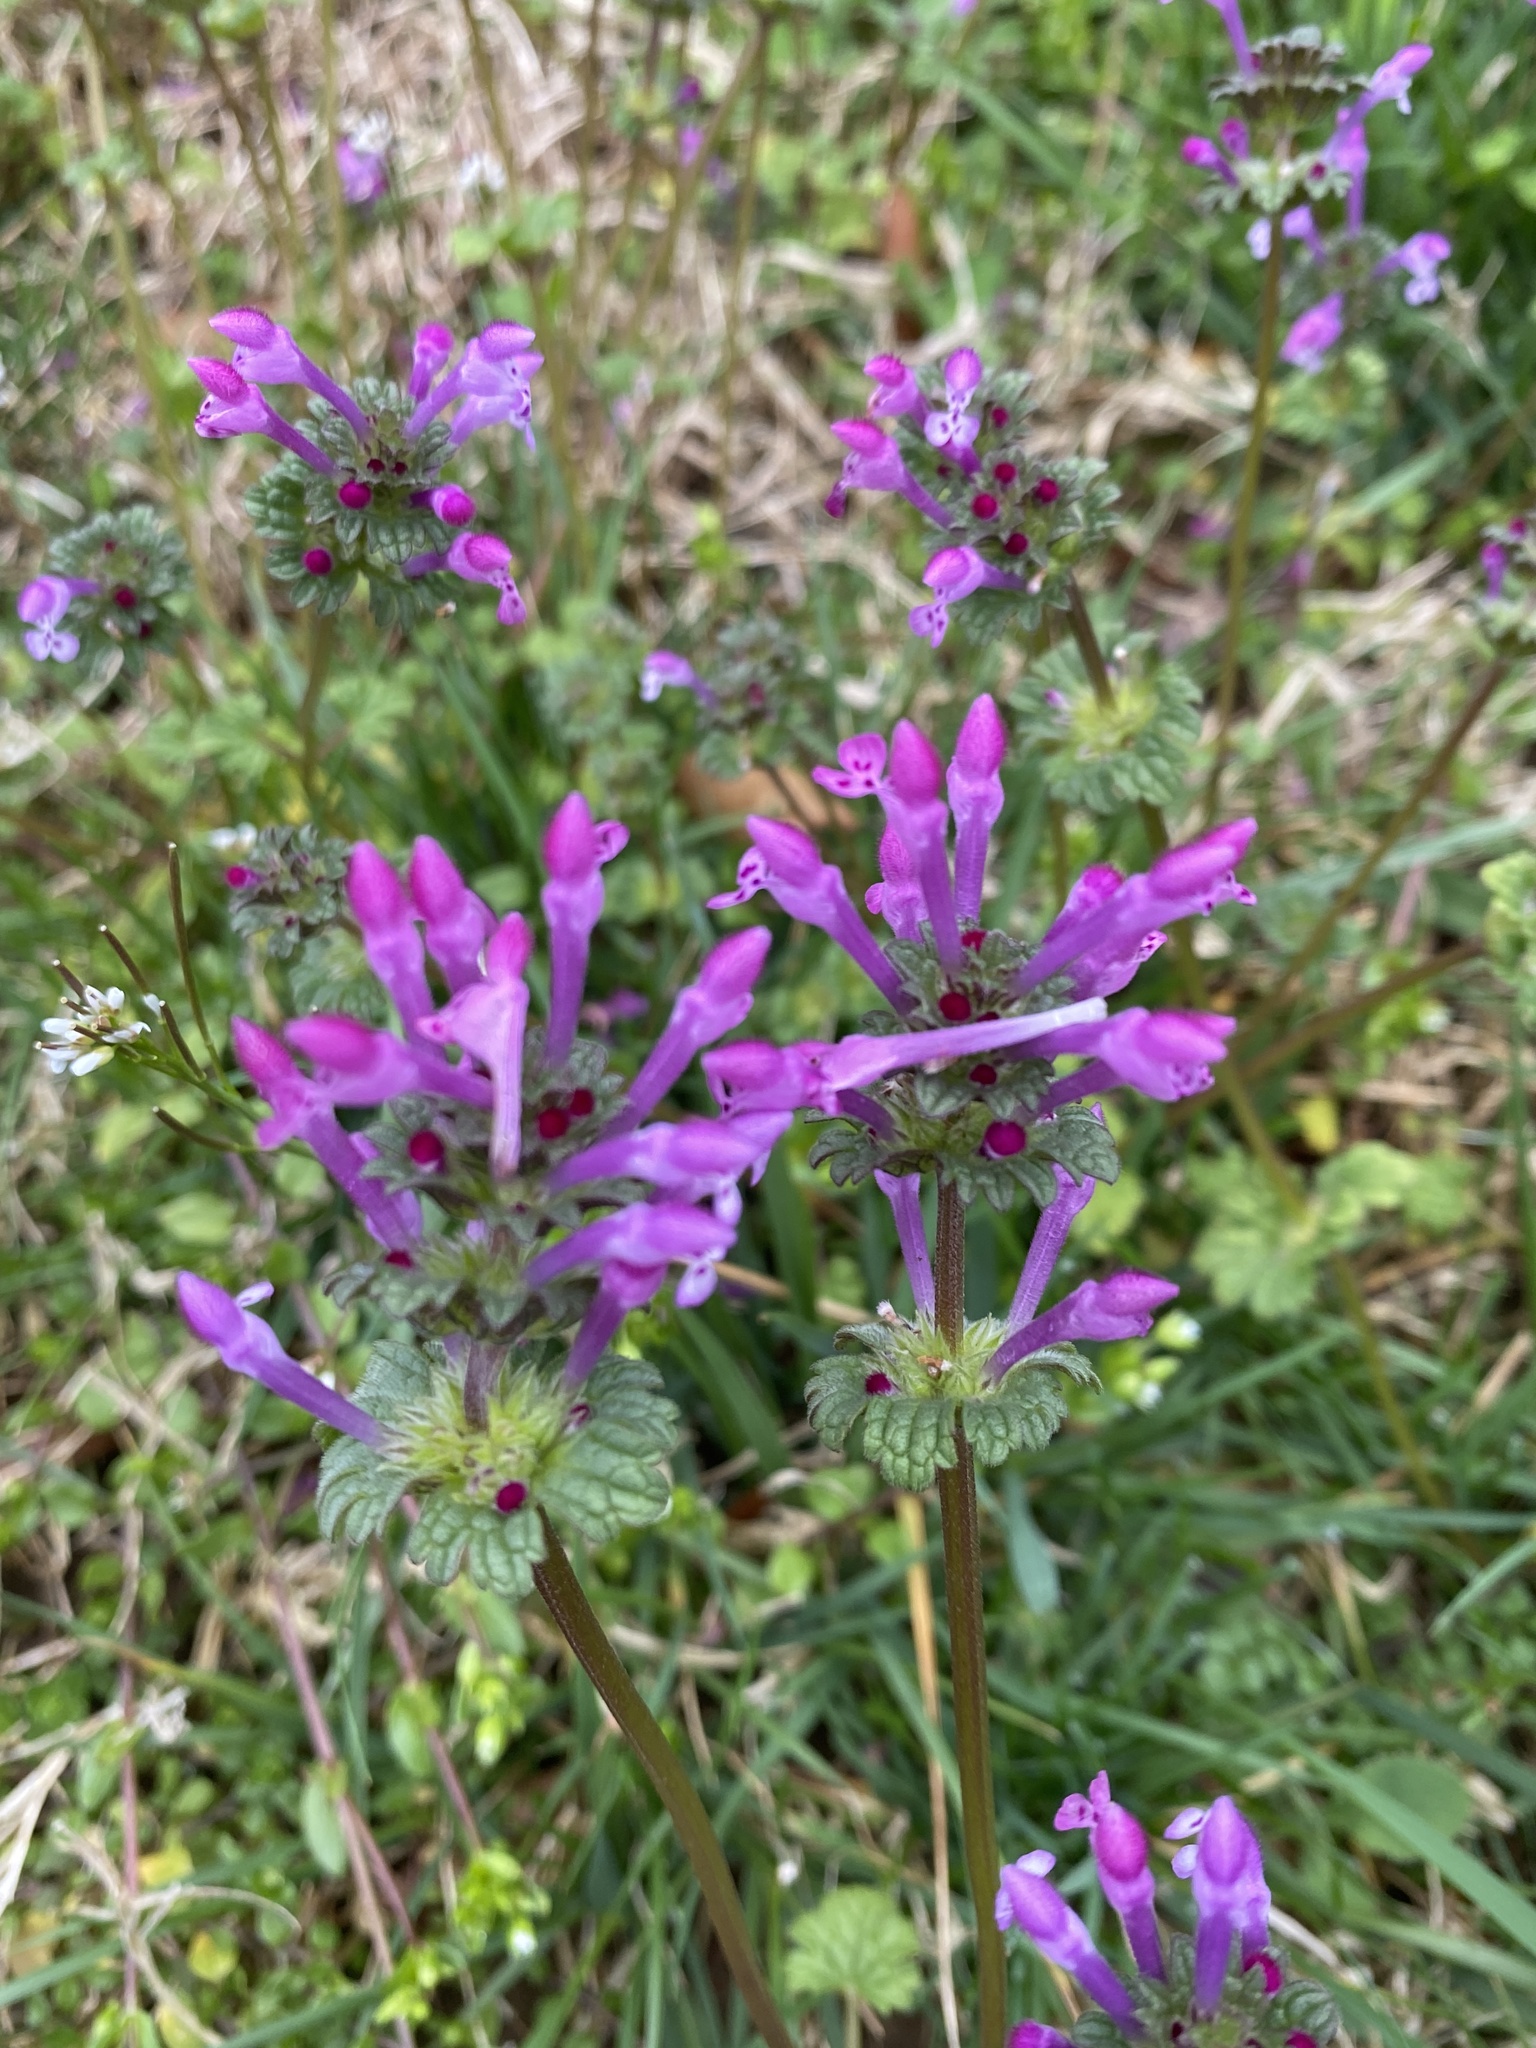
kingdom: Plantae
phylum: Tracheophyta
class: Magnoliopsida
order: Lamiales
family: Lamiaceae
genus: Lamium
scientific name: Lamium amplexicaule
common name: Henbit dead-nettle
